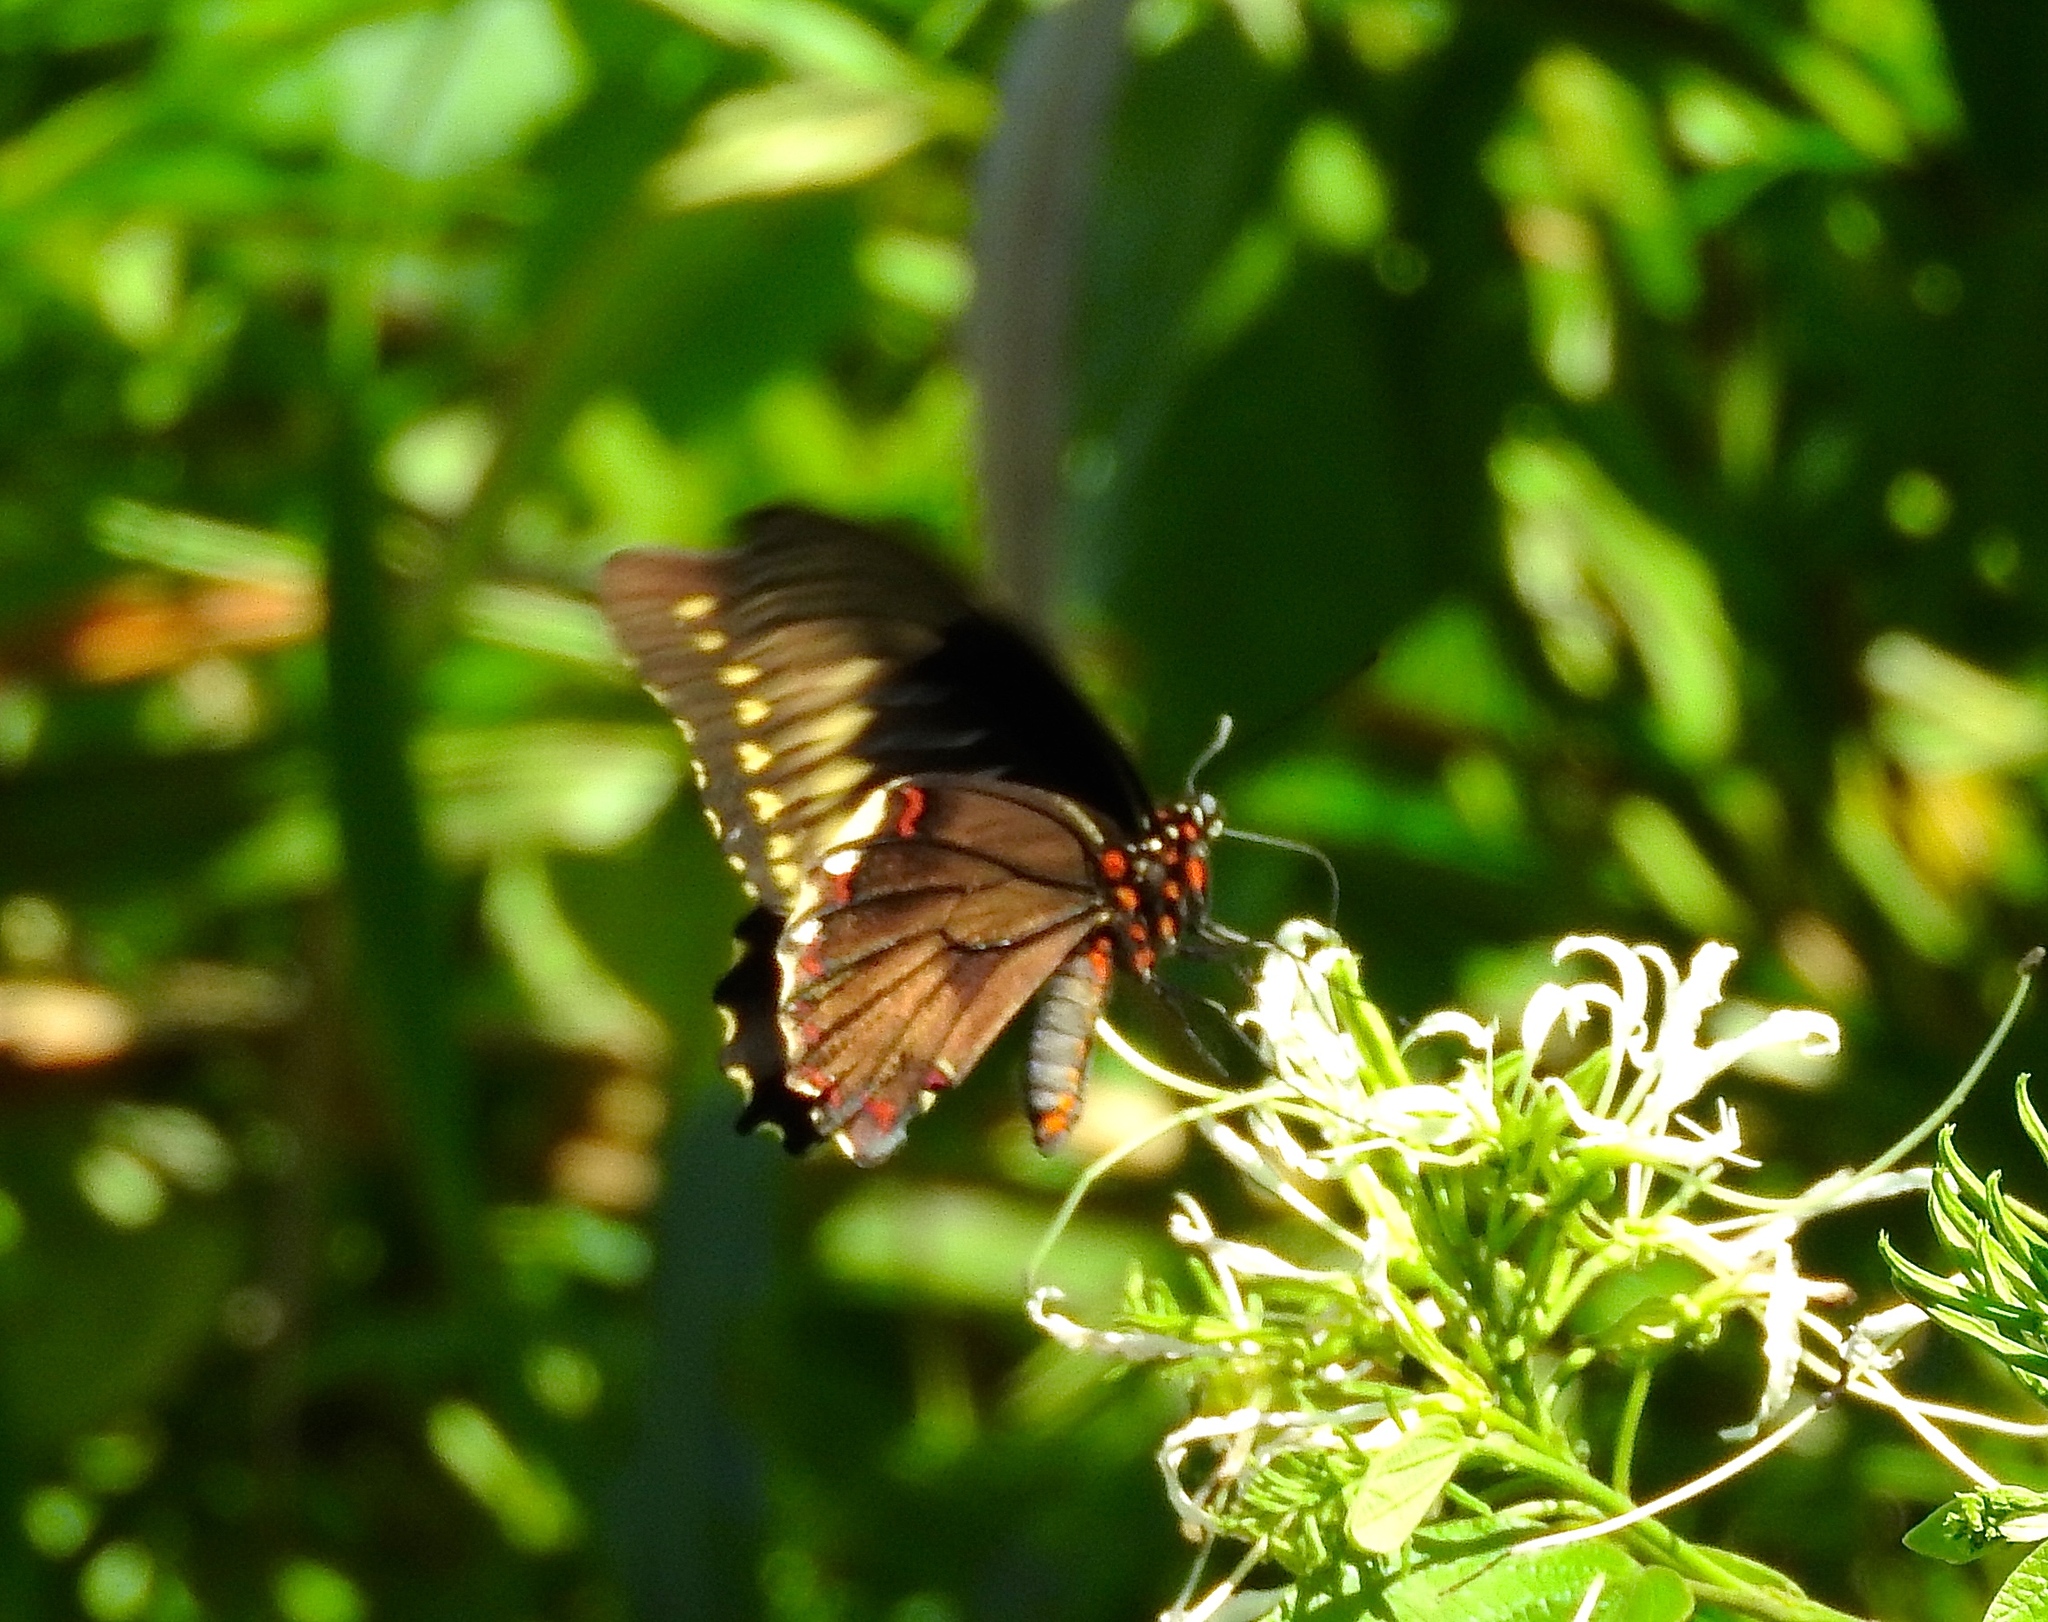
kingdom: Animalia
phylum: Arthropoda
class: Insecta
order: Lepidoptera
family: Papilionidae
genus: Battus
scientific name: Battus polydamas
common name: Polydamas swallowtail
